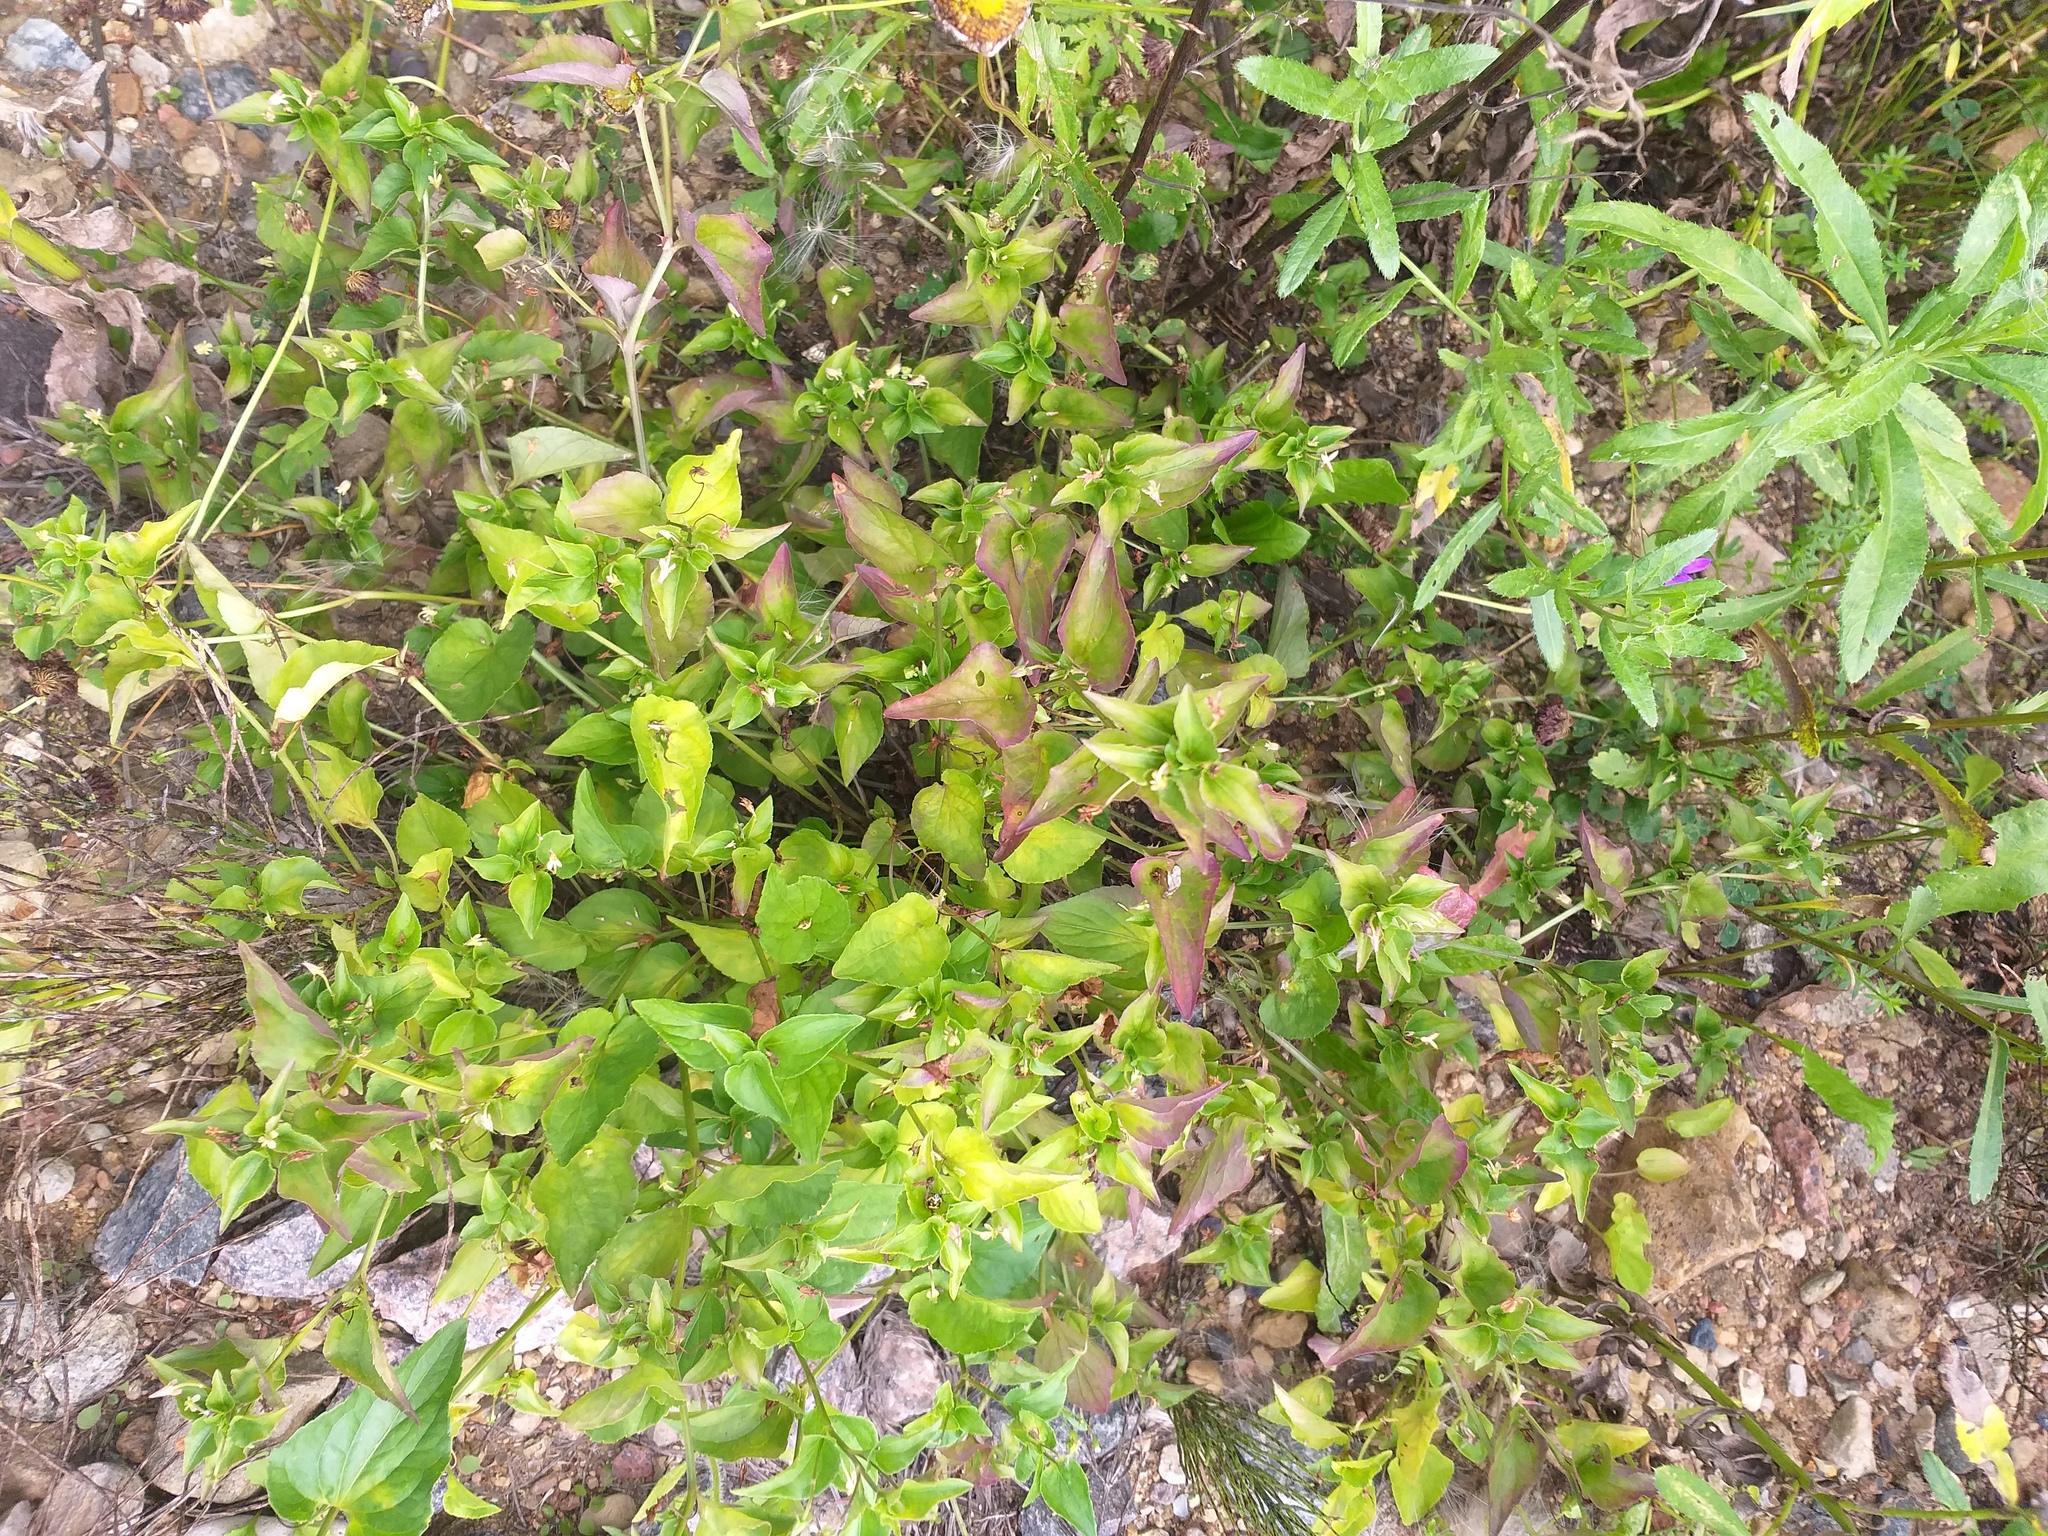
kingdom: Plantae
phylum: Tracheophyta
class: Magnoliopsida
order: Malpighiales
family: Violaceae
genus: Viola
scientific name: Viola canina
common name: Heath dog-violet
